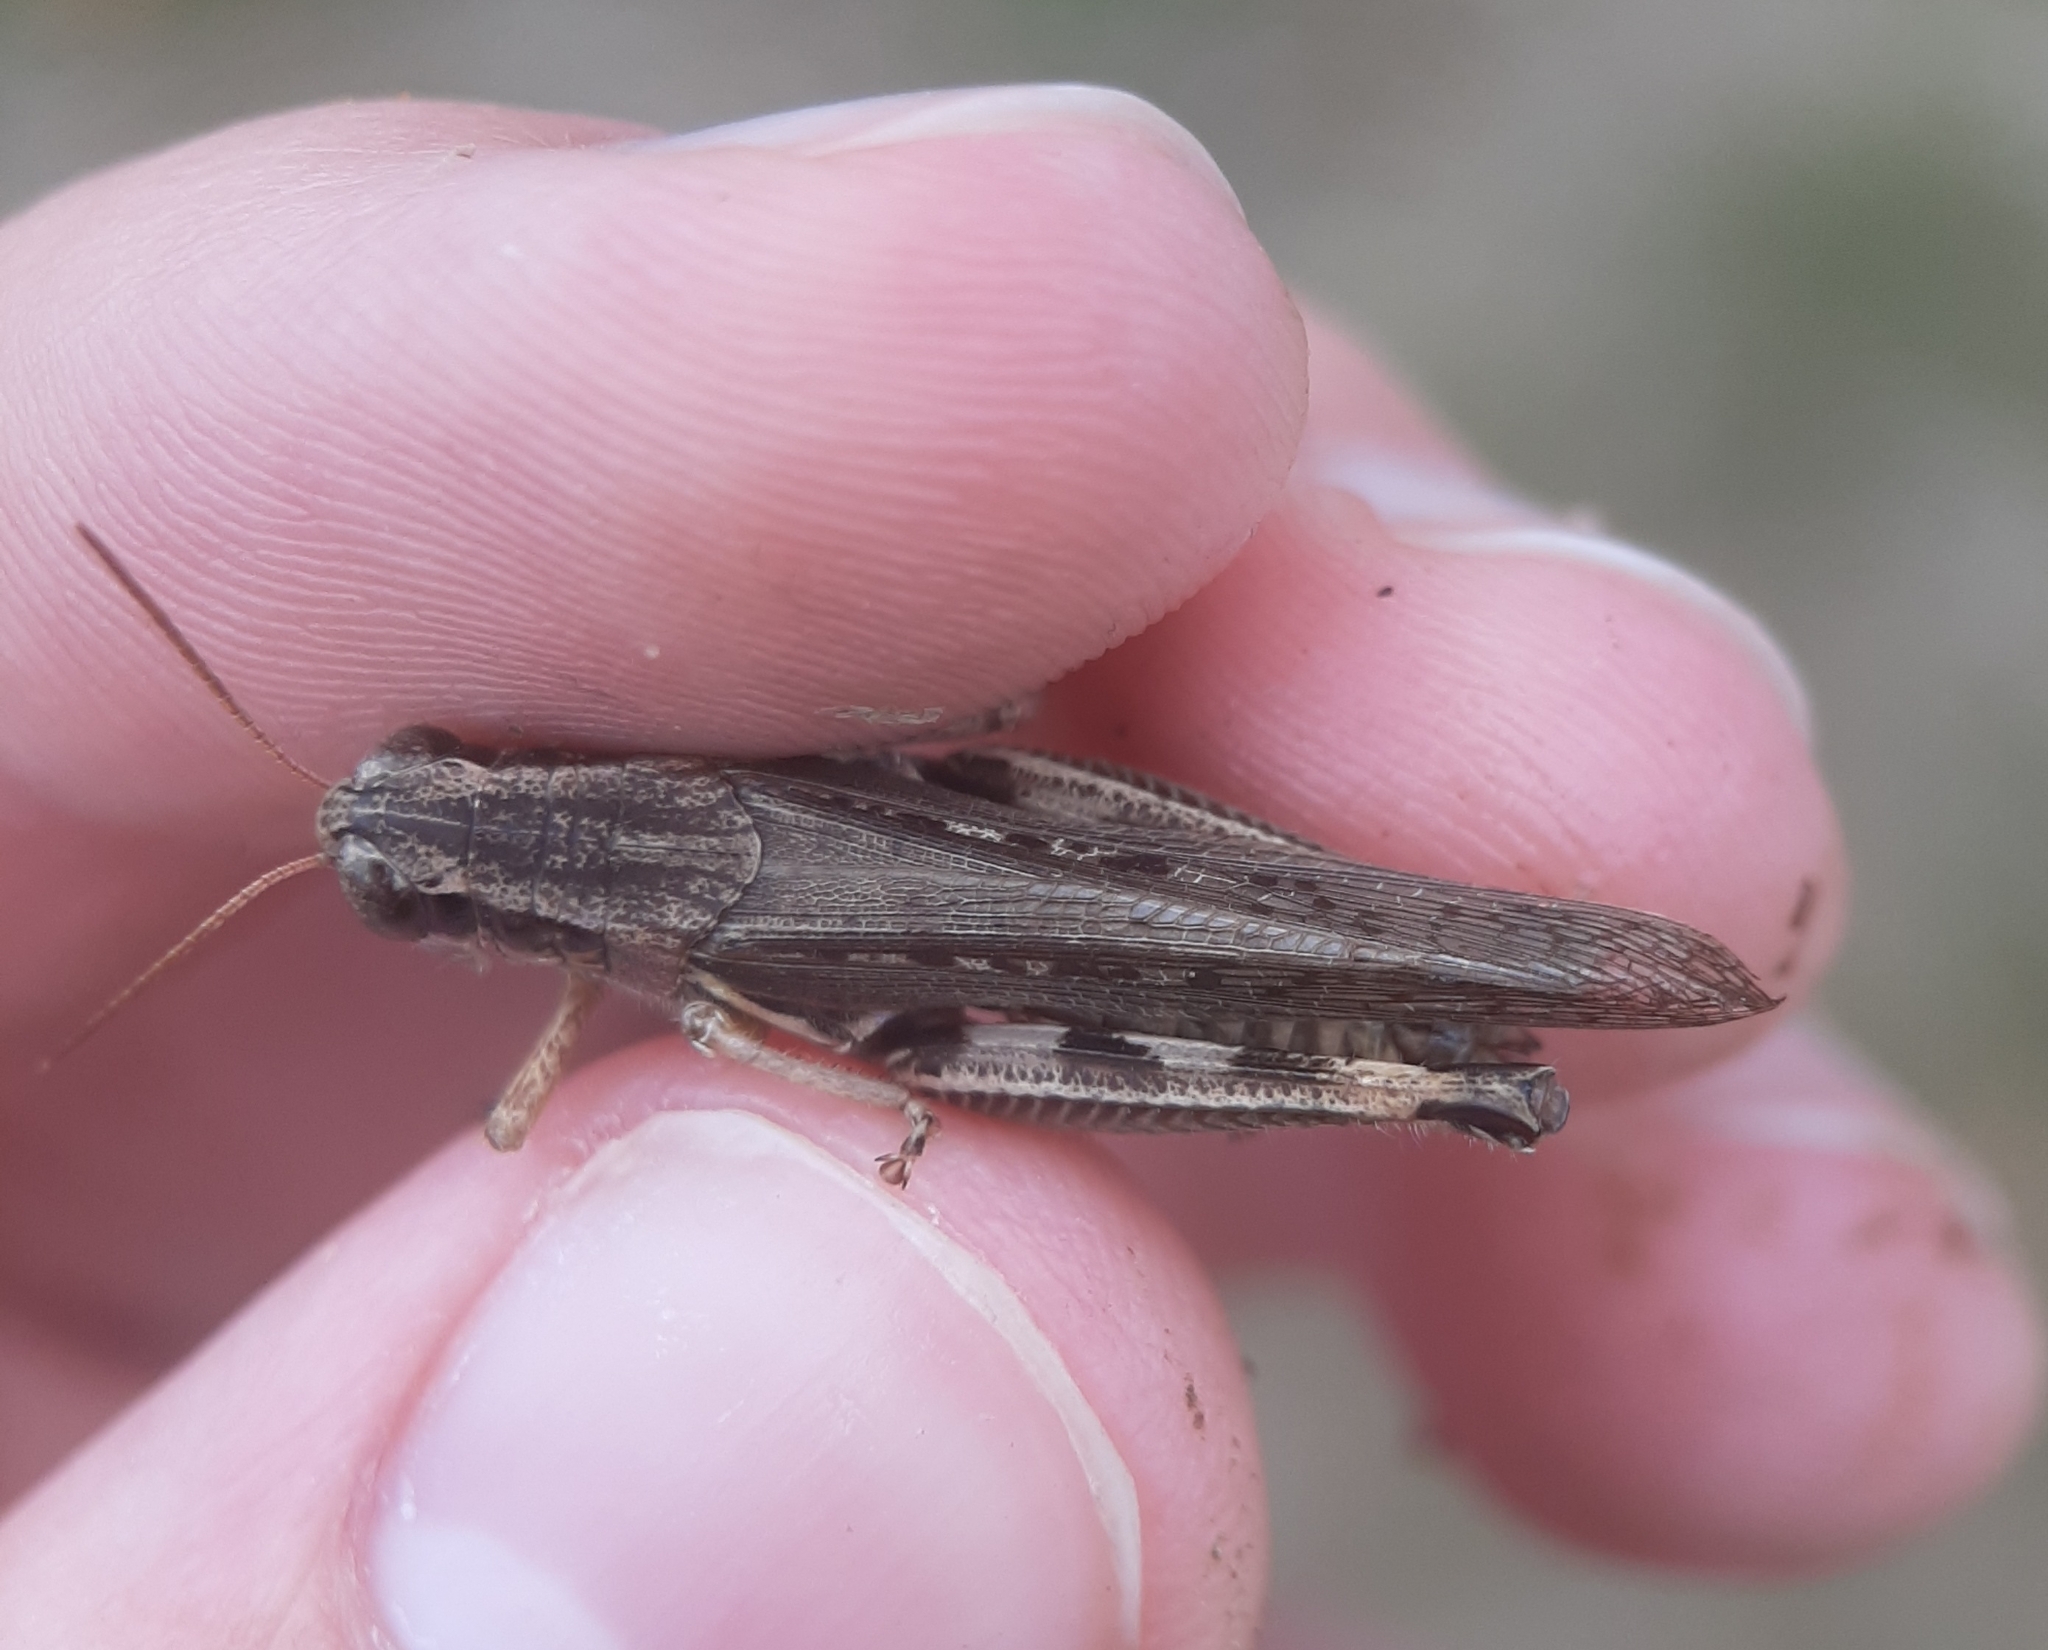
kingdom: Animalia
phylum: Arthropoda
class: Insecta
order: Orthoptera
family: Acrididae
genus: Melanoplus
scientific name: Melanoplus femurrubrum
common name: Red-legged grasshopper
